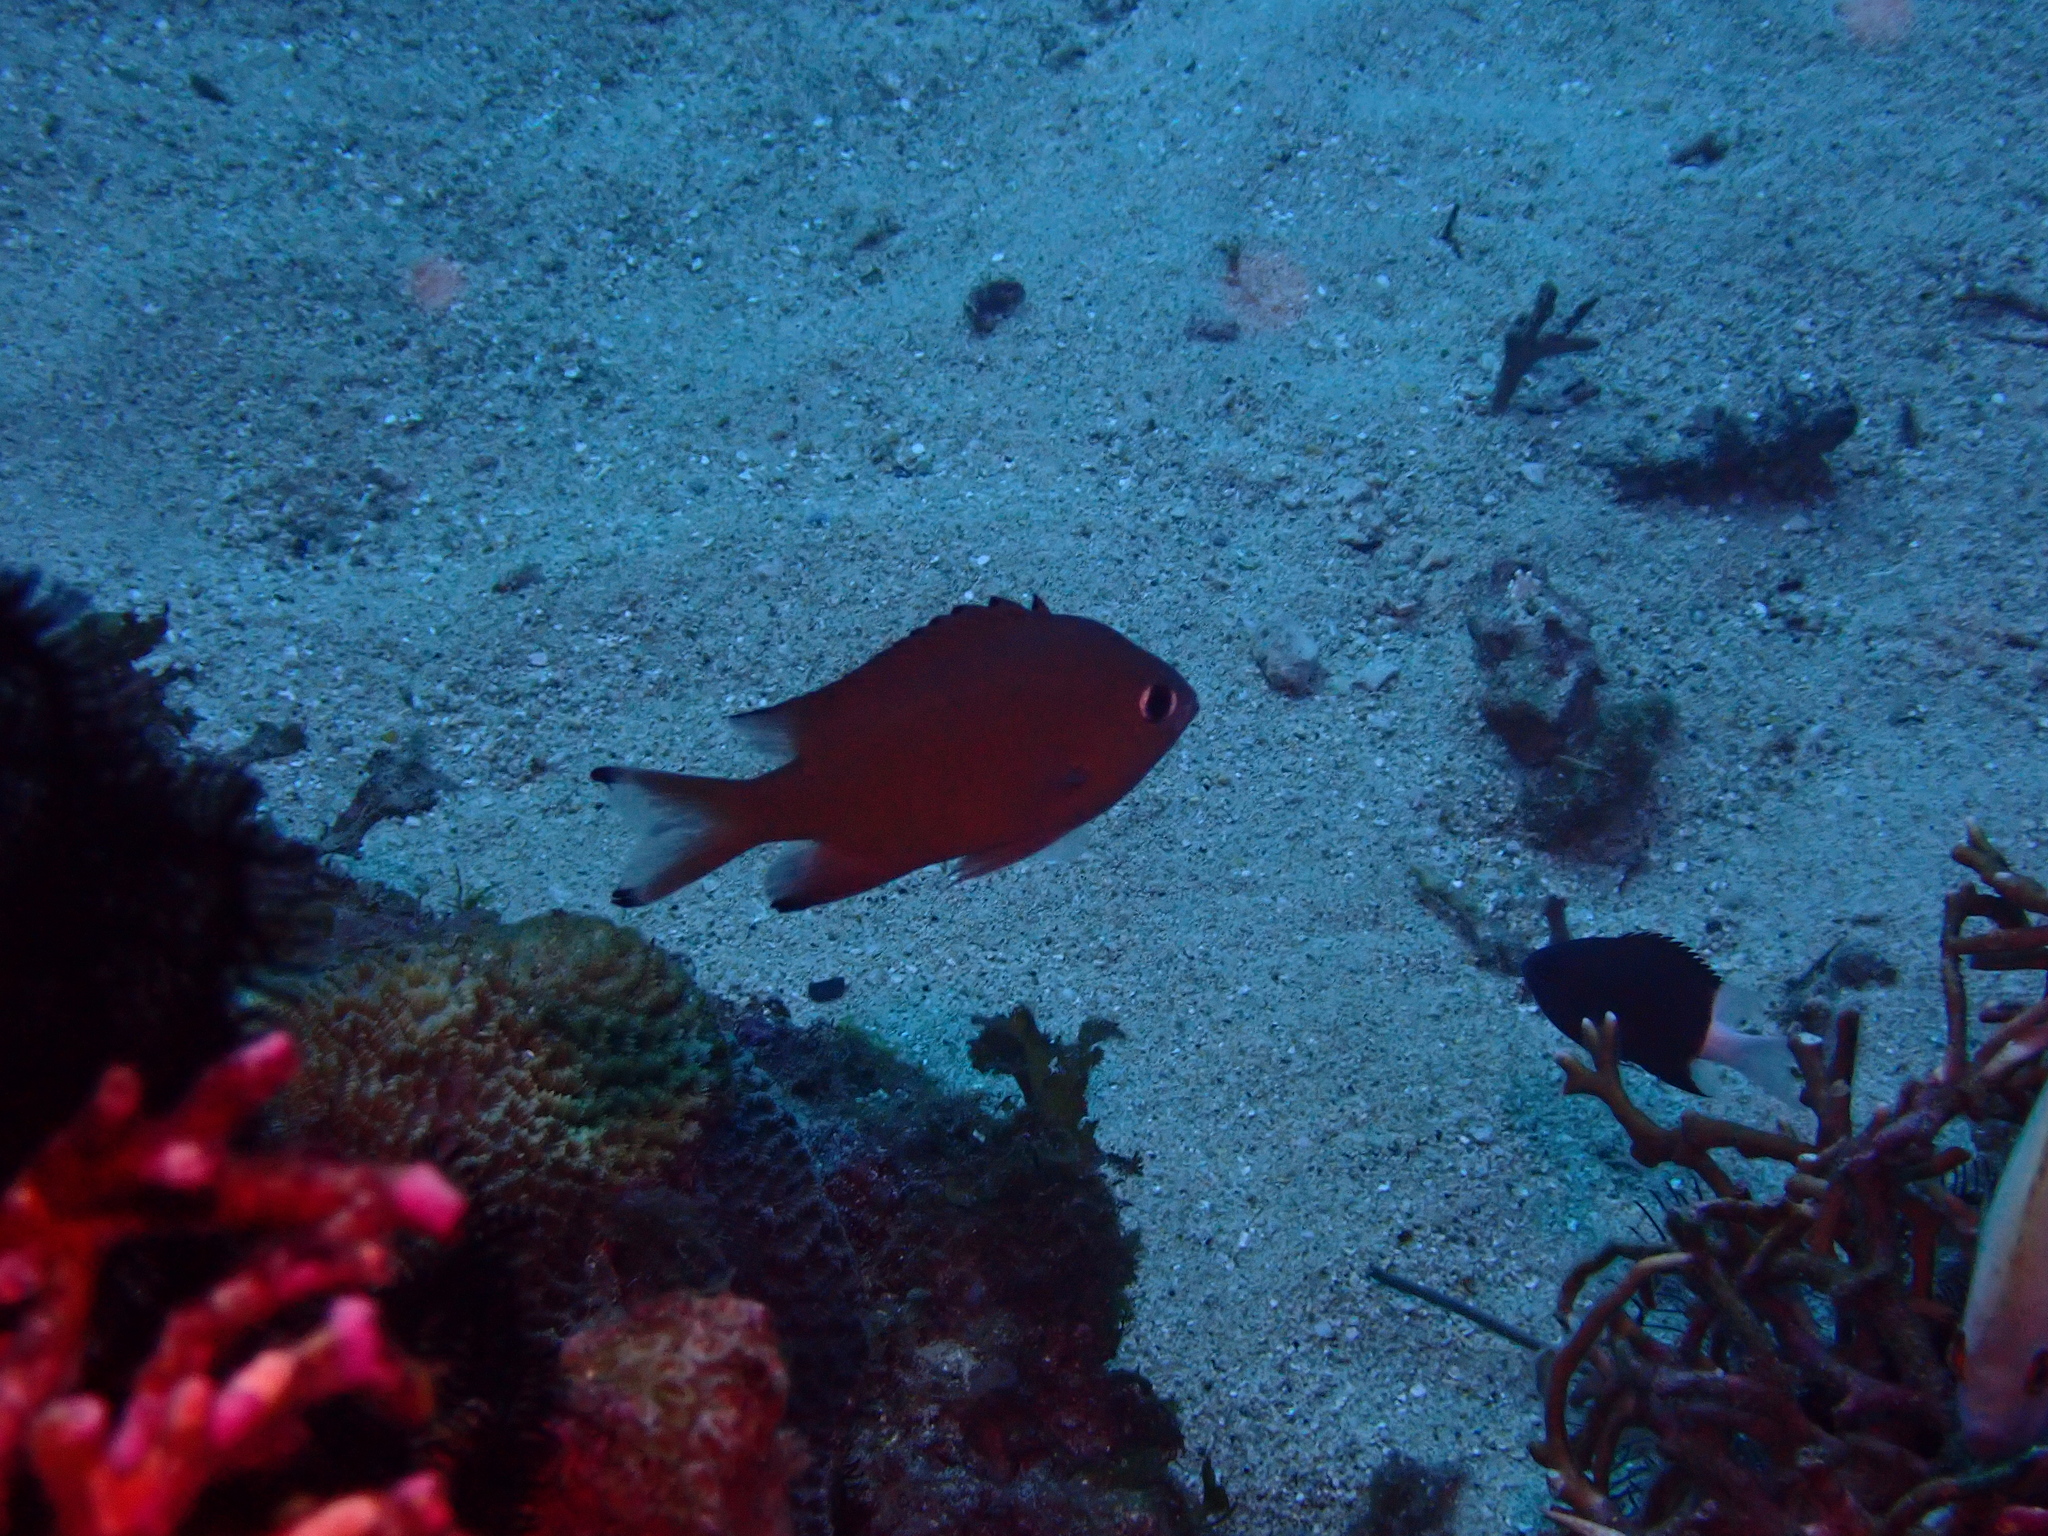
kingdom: Animalia
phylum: Chordata
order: Perciformes
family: Pomacentridae
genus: Chromis
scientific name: Chromis lepidolepis
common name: Scaly chromis
